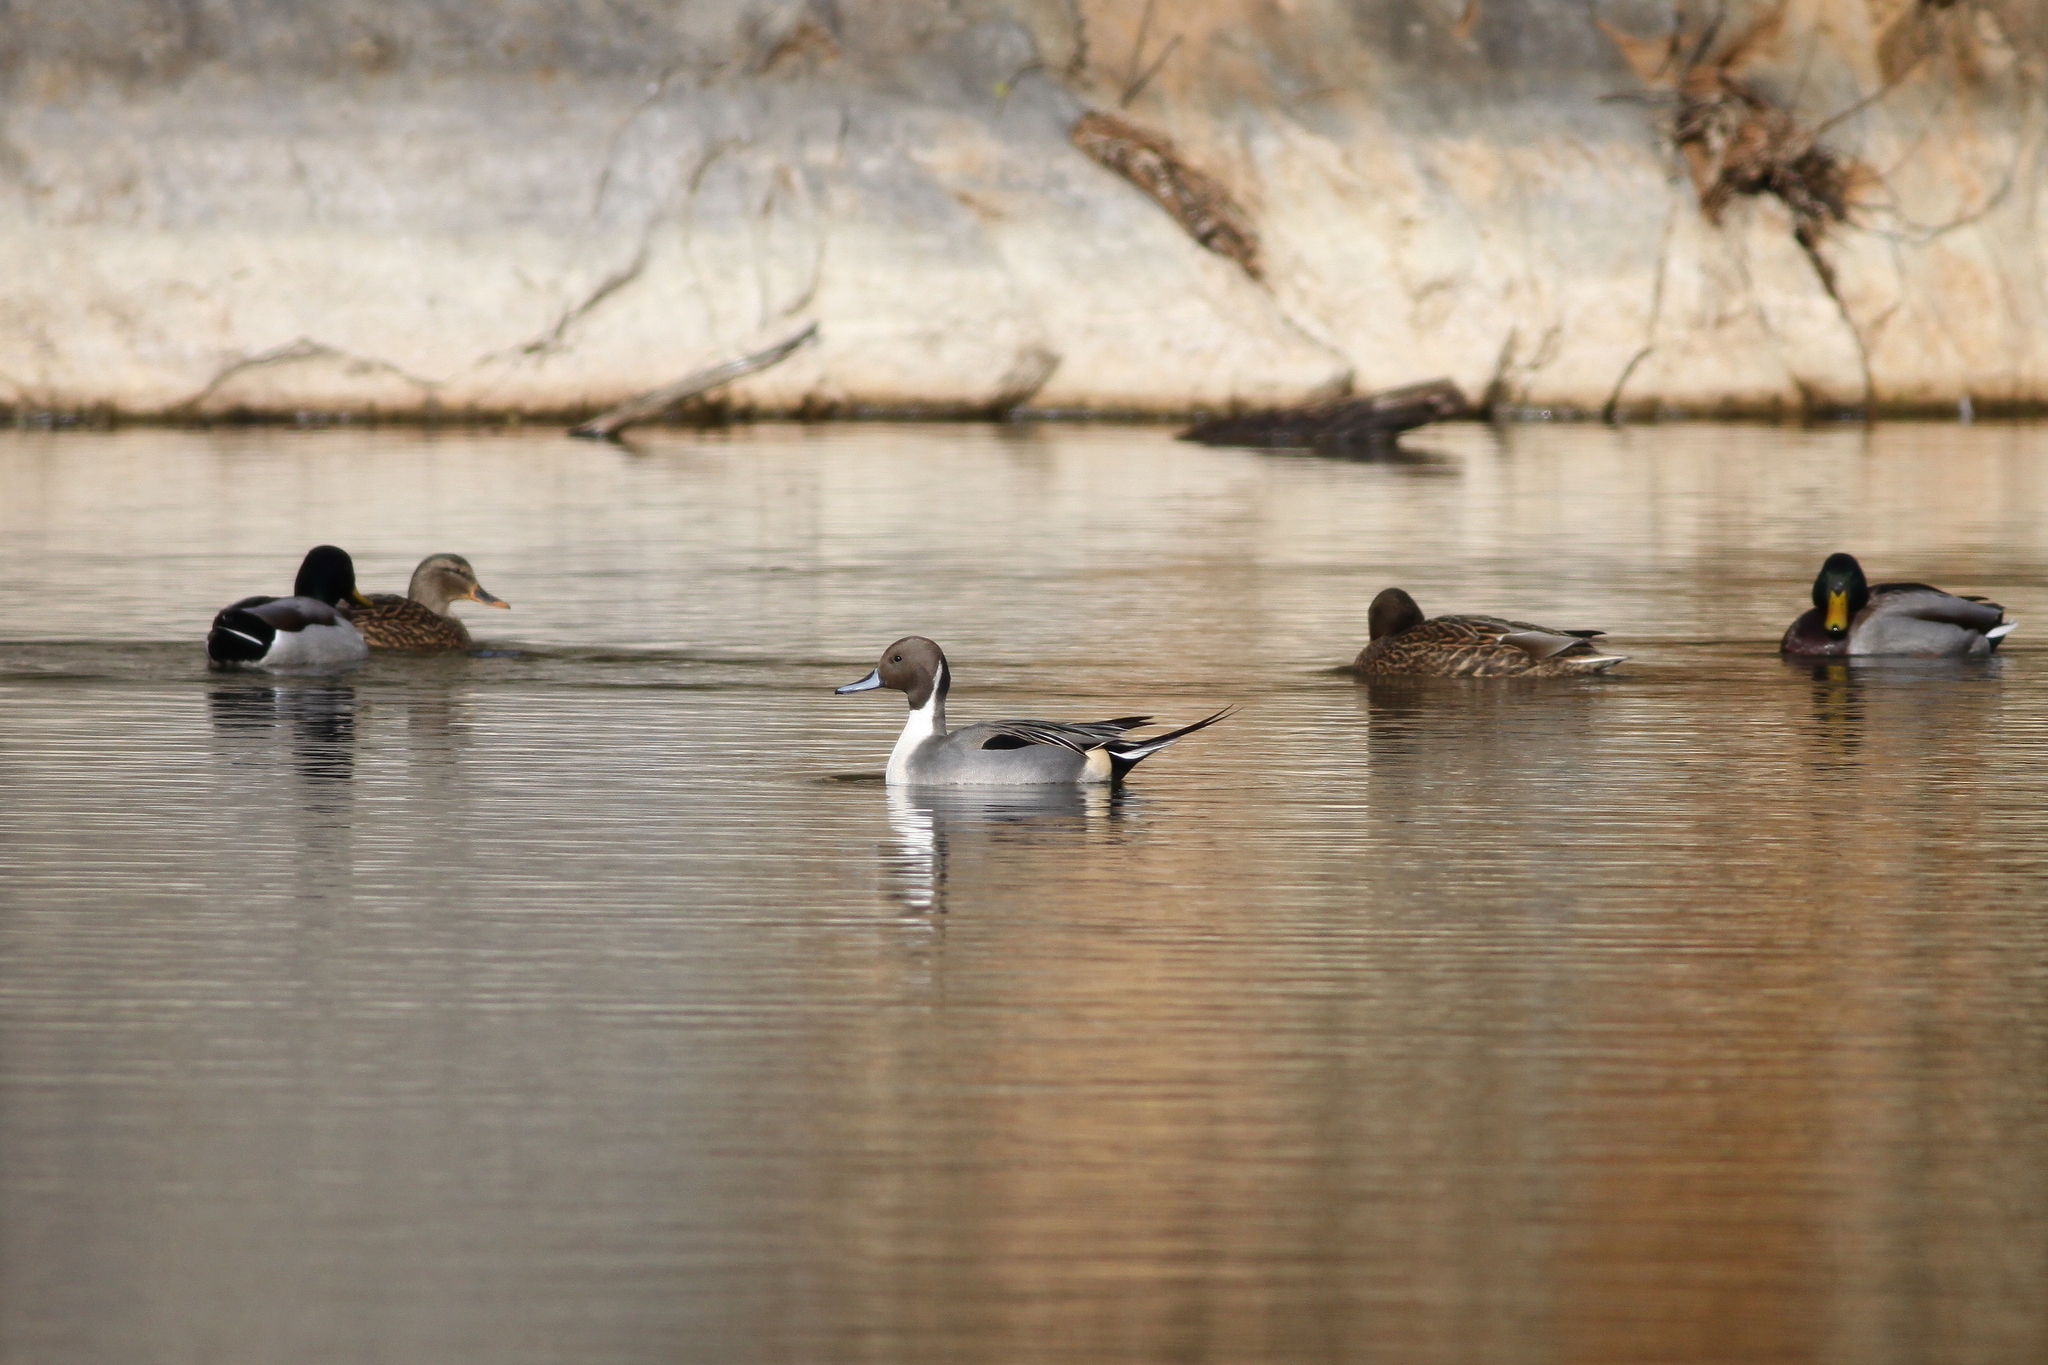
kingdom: Animalia
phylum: Chordata
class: Aves
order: Anseriformes
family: Anatidae
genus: Anas
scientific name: Anas platyrhynchos
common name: Mallard
